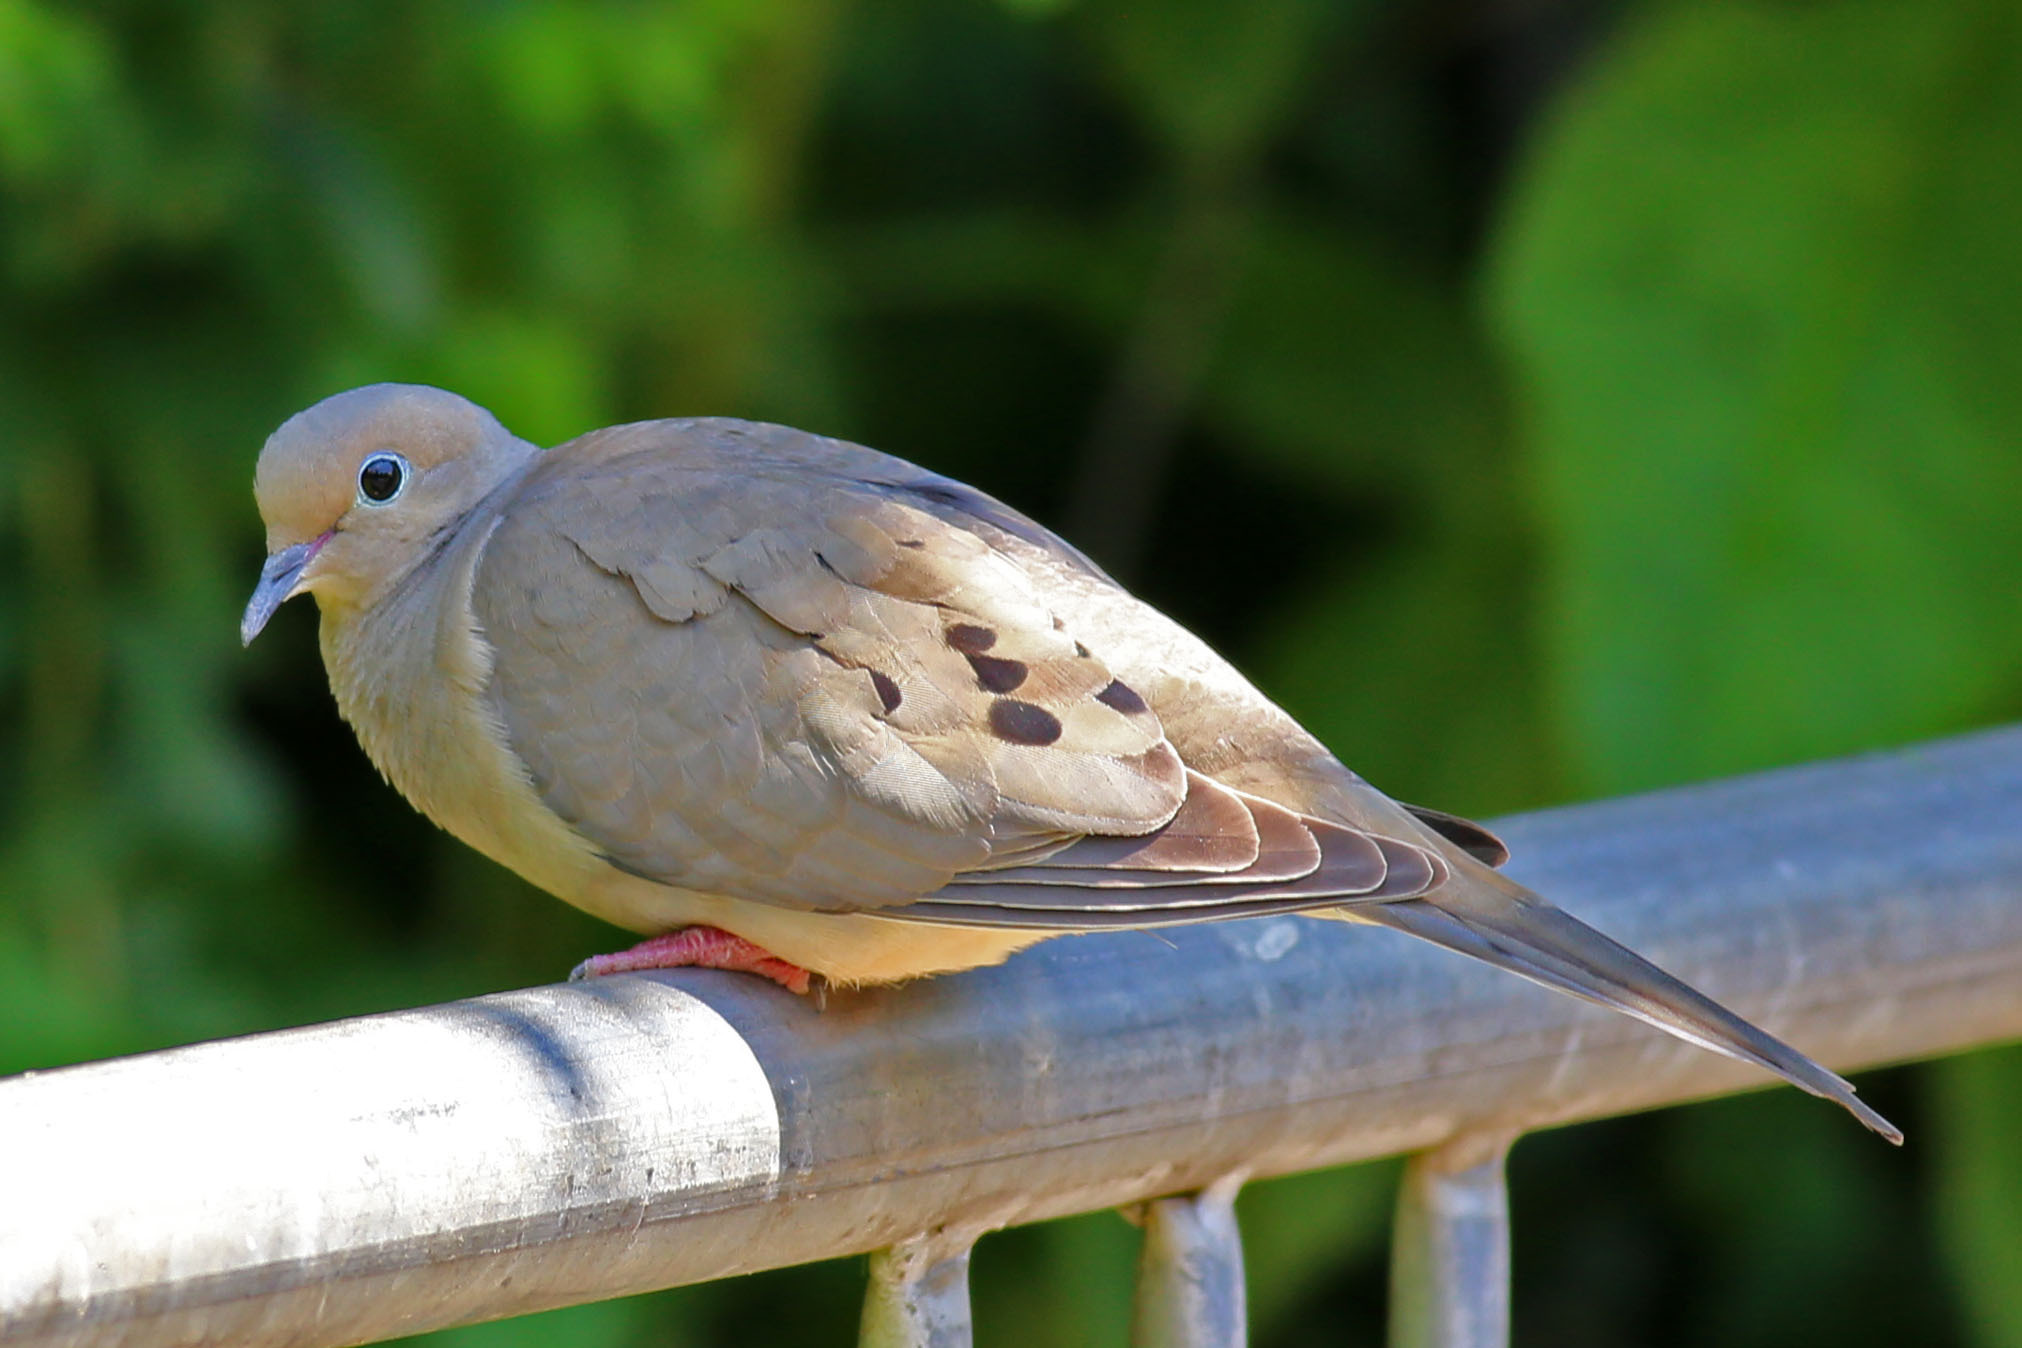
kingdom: Animalia
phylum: Chordata
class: Aves
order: Columbiformes
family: Columbidae
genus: Zenaida
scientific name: Zenaida macroura
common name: Mourning dove
